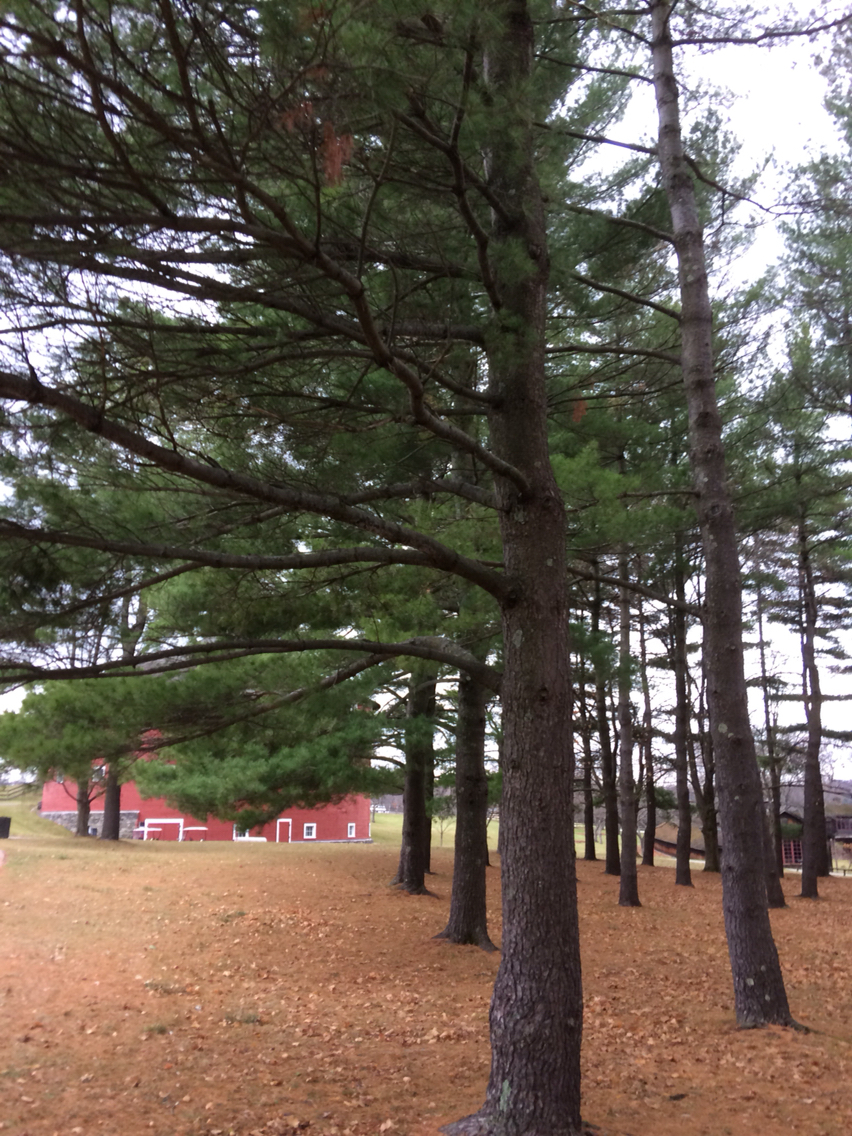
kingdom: Plantae
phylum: Tracheophyta
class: Pinopsida
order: Pinales
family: Pinaceae
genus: Pinus
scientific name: Pinus strobus
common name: Weymouth pine
